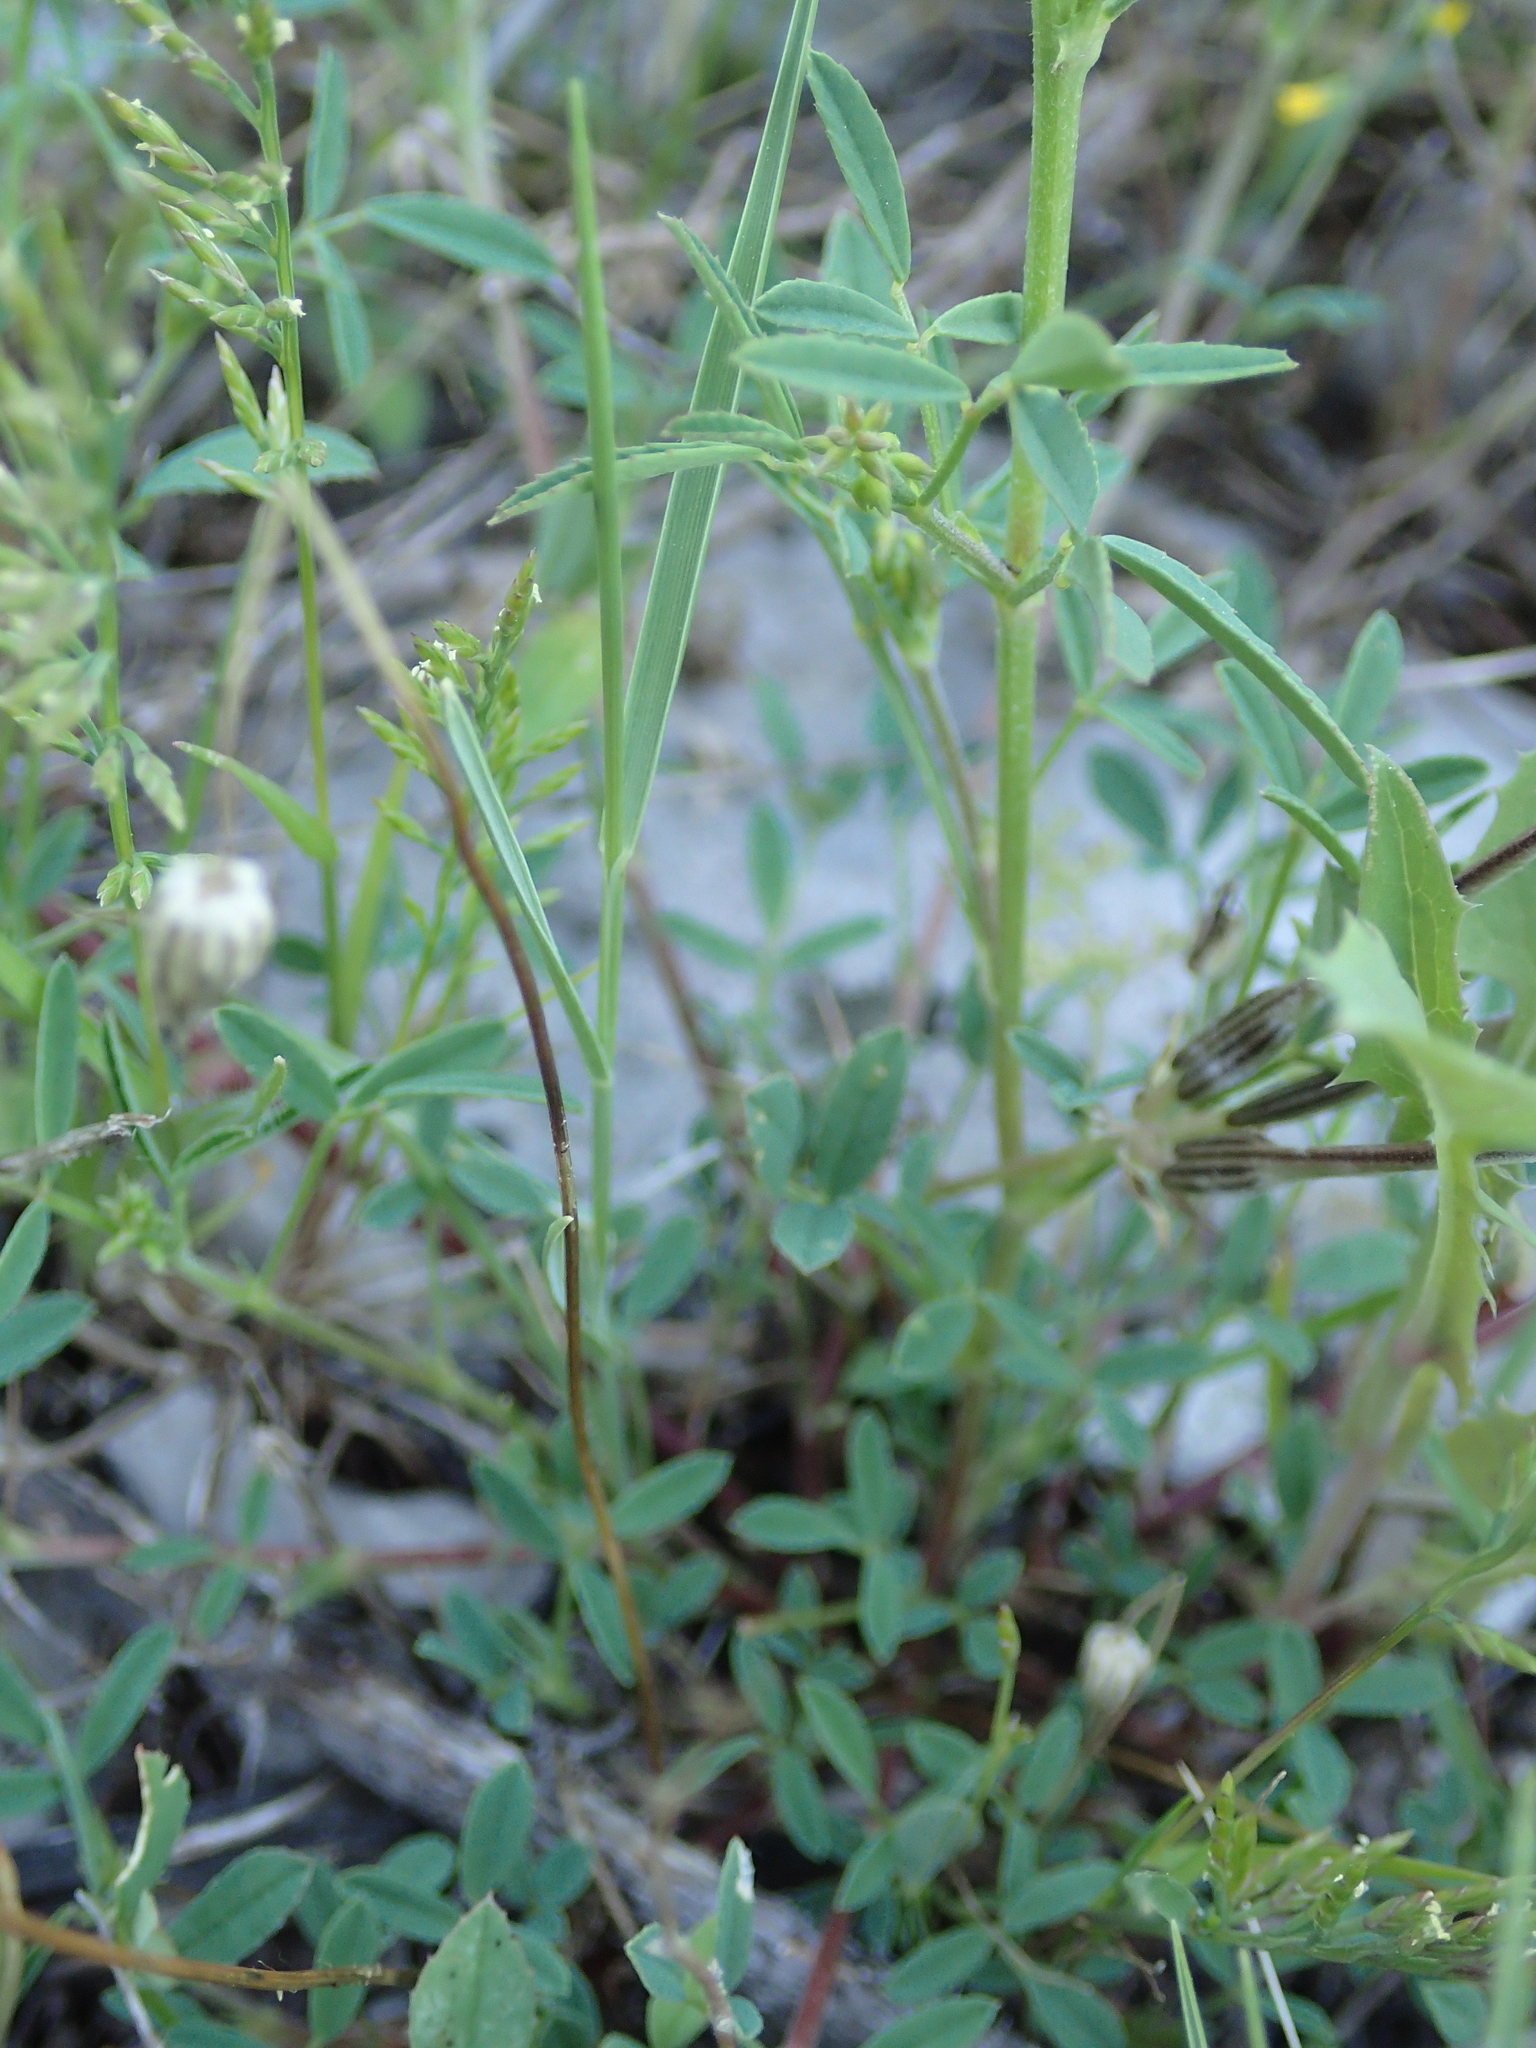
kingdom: Plantae
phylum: Tracheophyta
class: Magnoliopsida
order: Fabales
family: Fabaceae
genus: Melilotus
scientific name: Melilotus sulcatus
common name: Furrowed melilot
